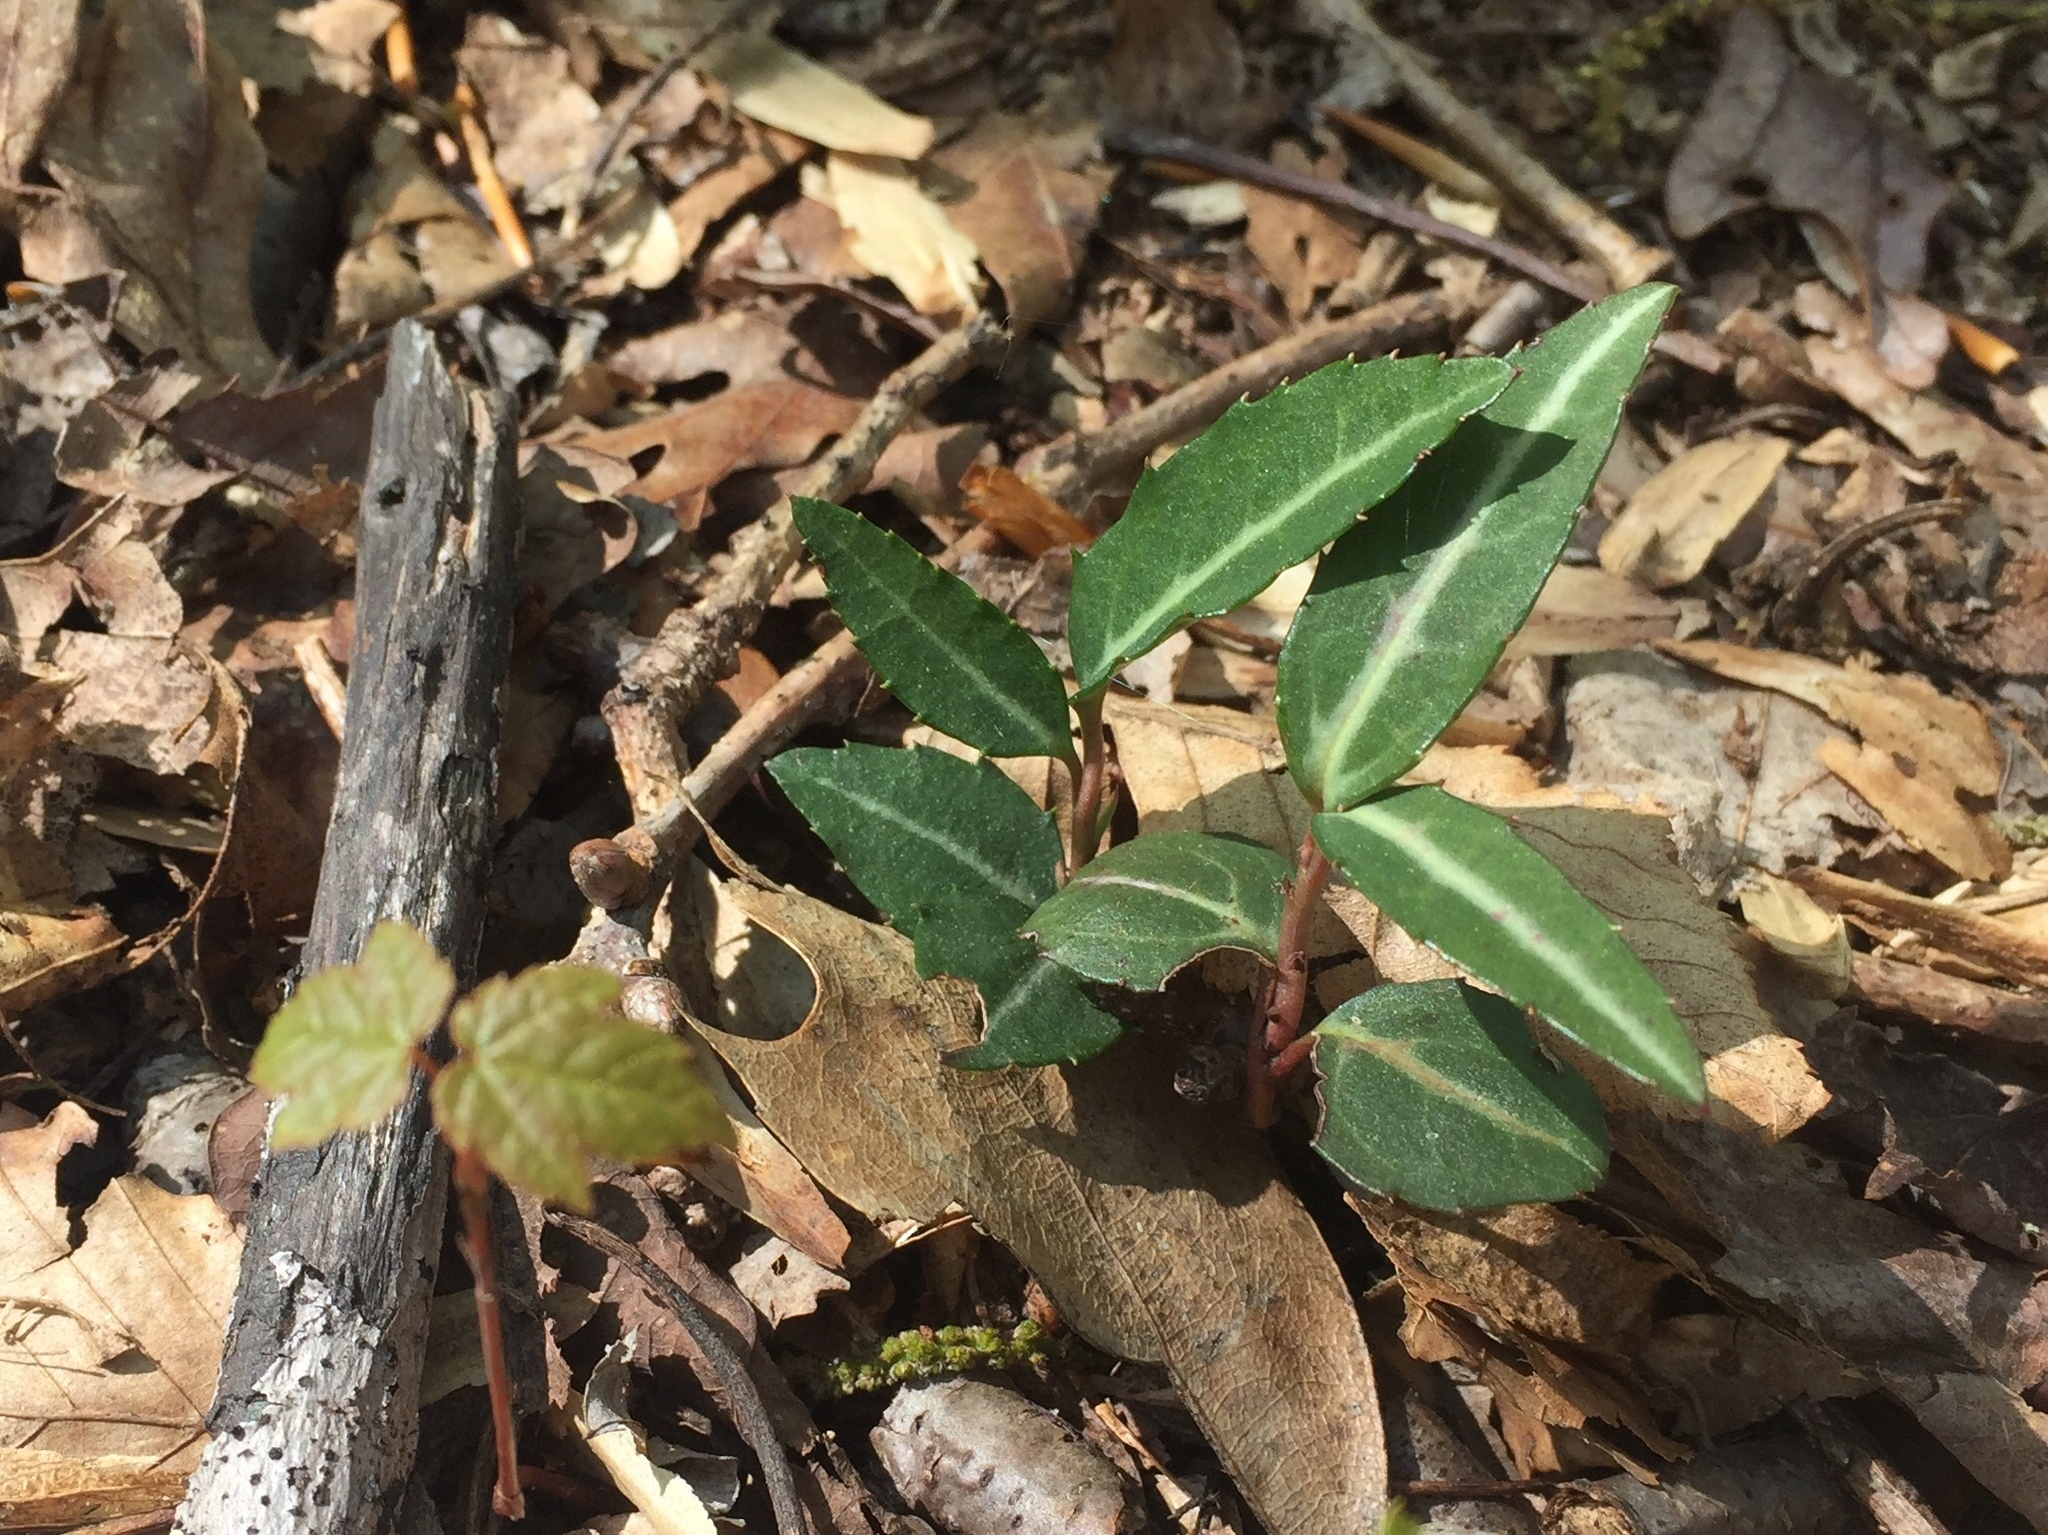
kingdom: Plantae
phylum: Tracheophyta
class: Magnoliopsida
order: Ericales
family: Ericaceae
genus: Chimaphila
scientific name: Chimaphila maculata
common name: Spotted pipsissewa
